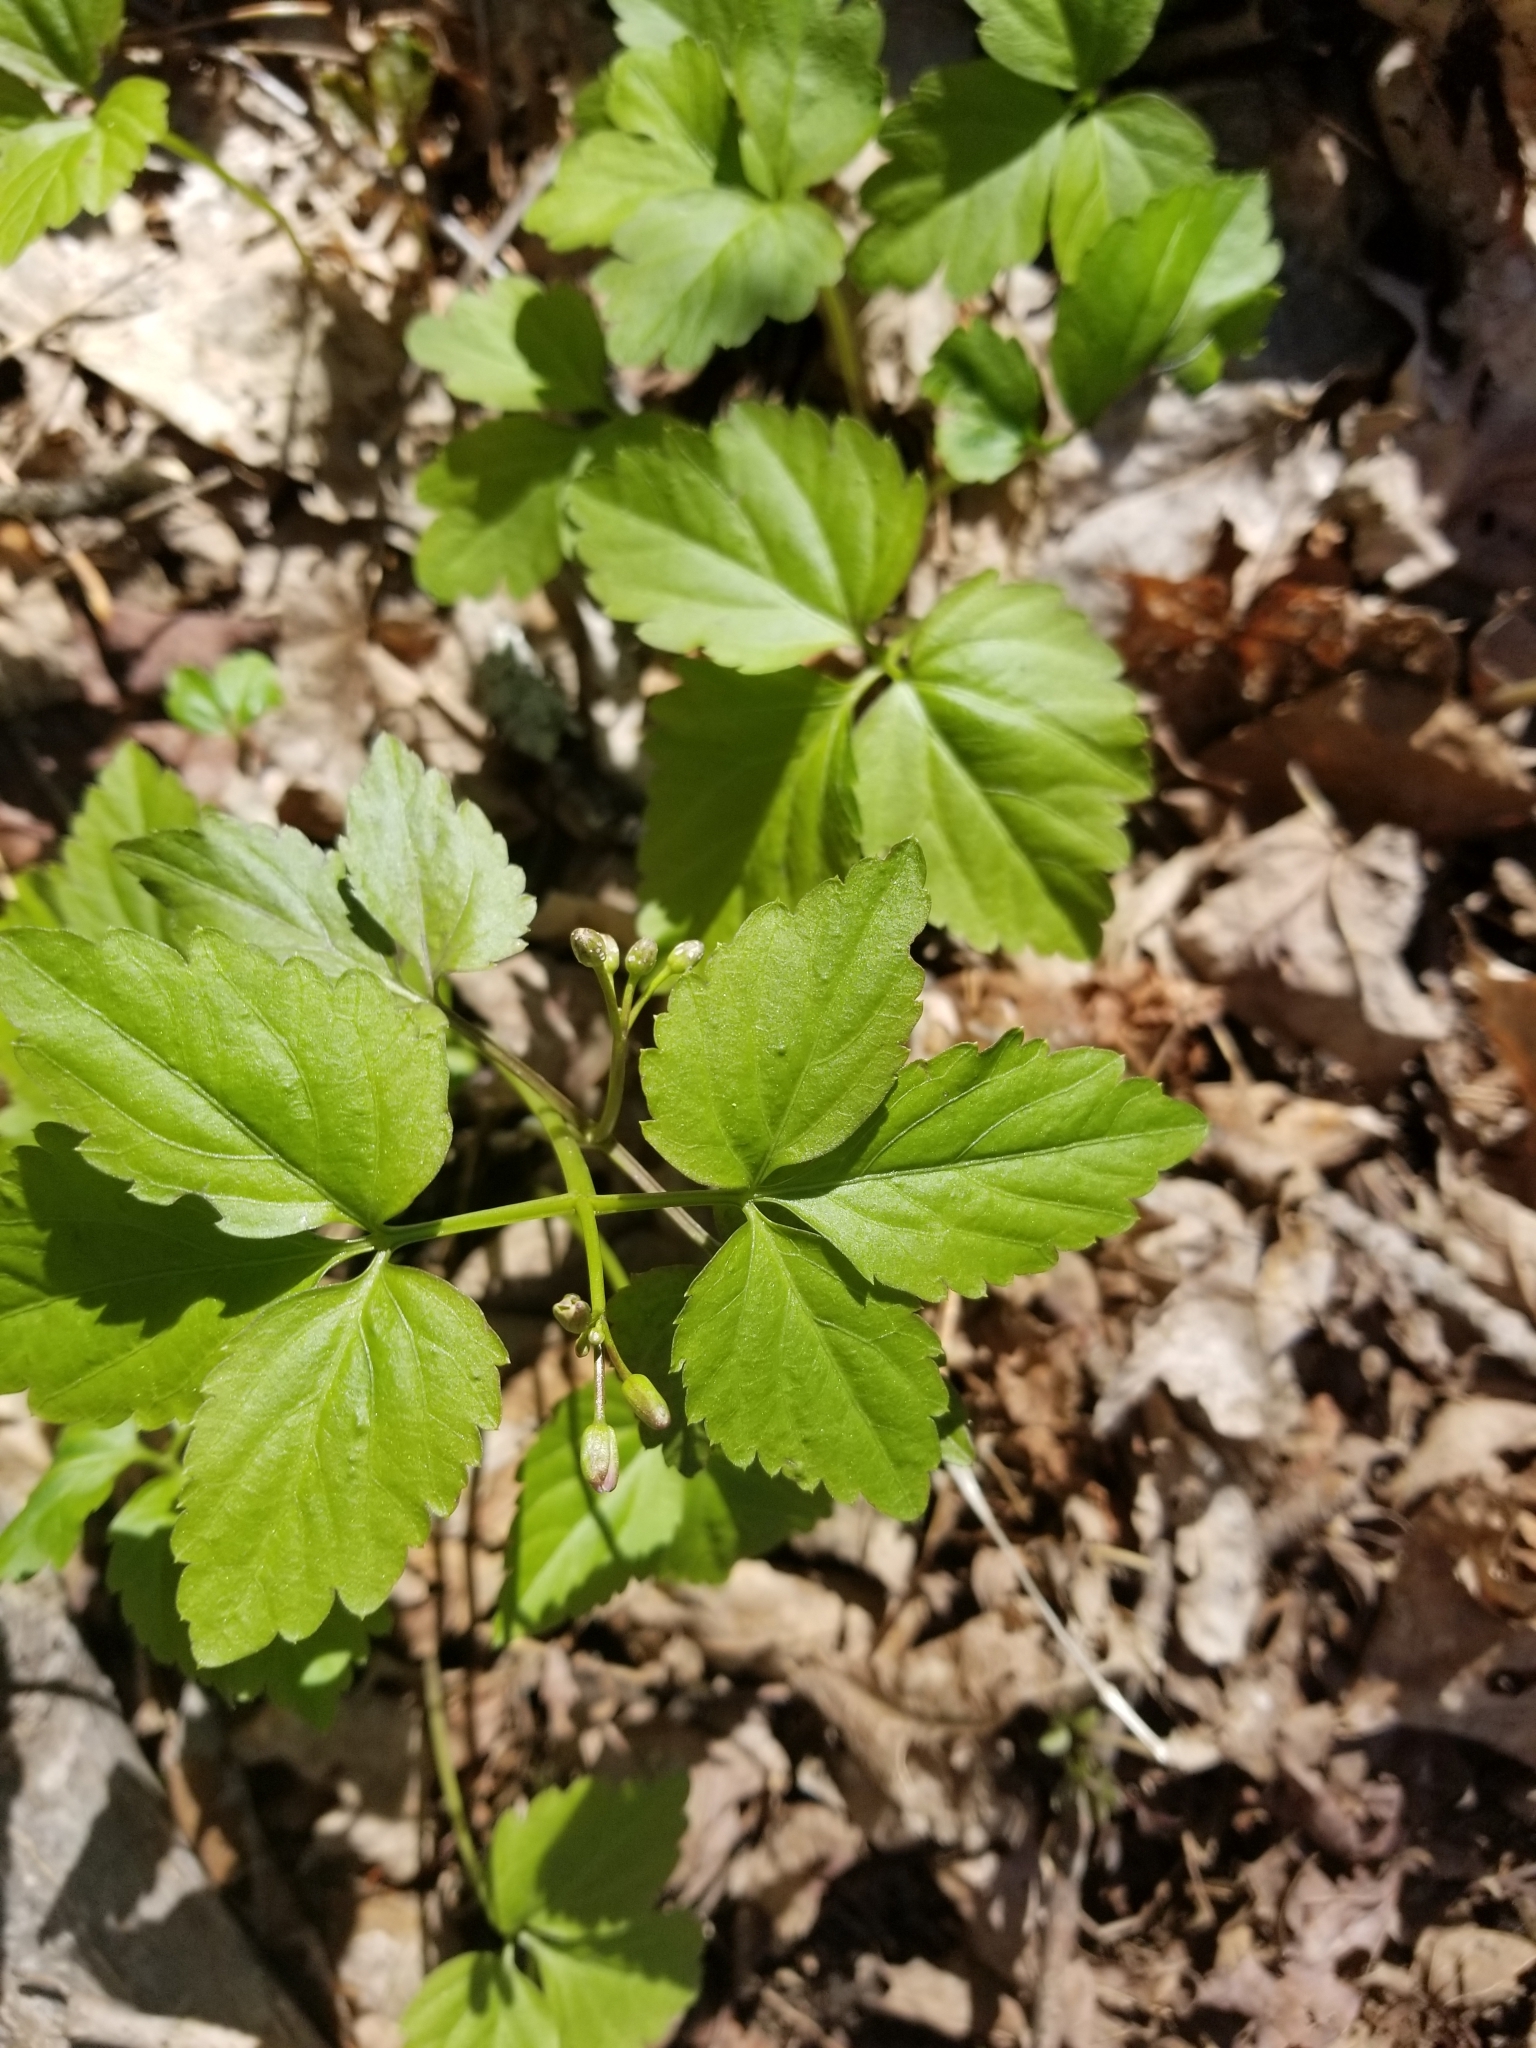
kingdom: Plantae
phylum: Tracheophyta
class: Magnoliopsida
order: Brassicales
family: Brassicaceae
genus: Cardamine
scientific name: Cardamine diphylla
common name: Broad-leaved toothwort
